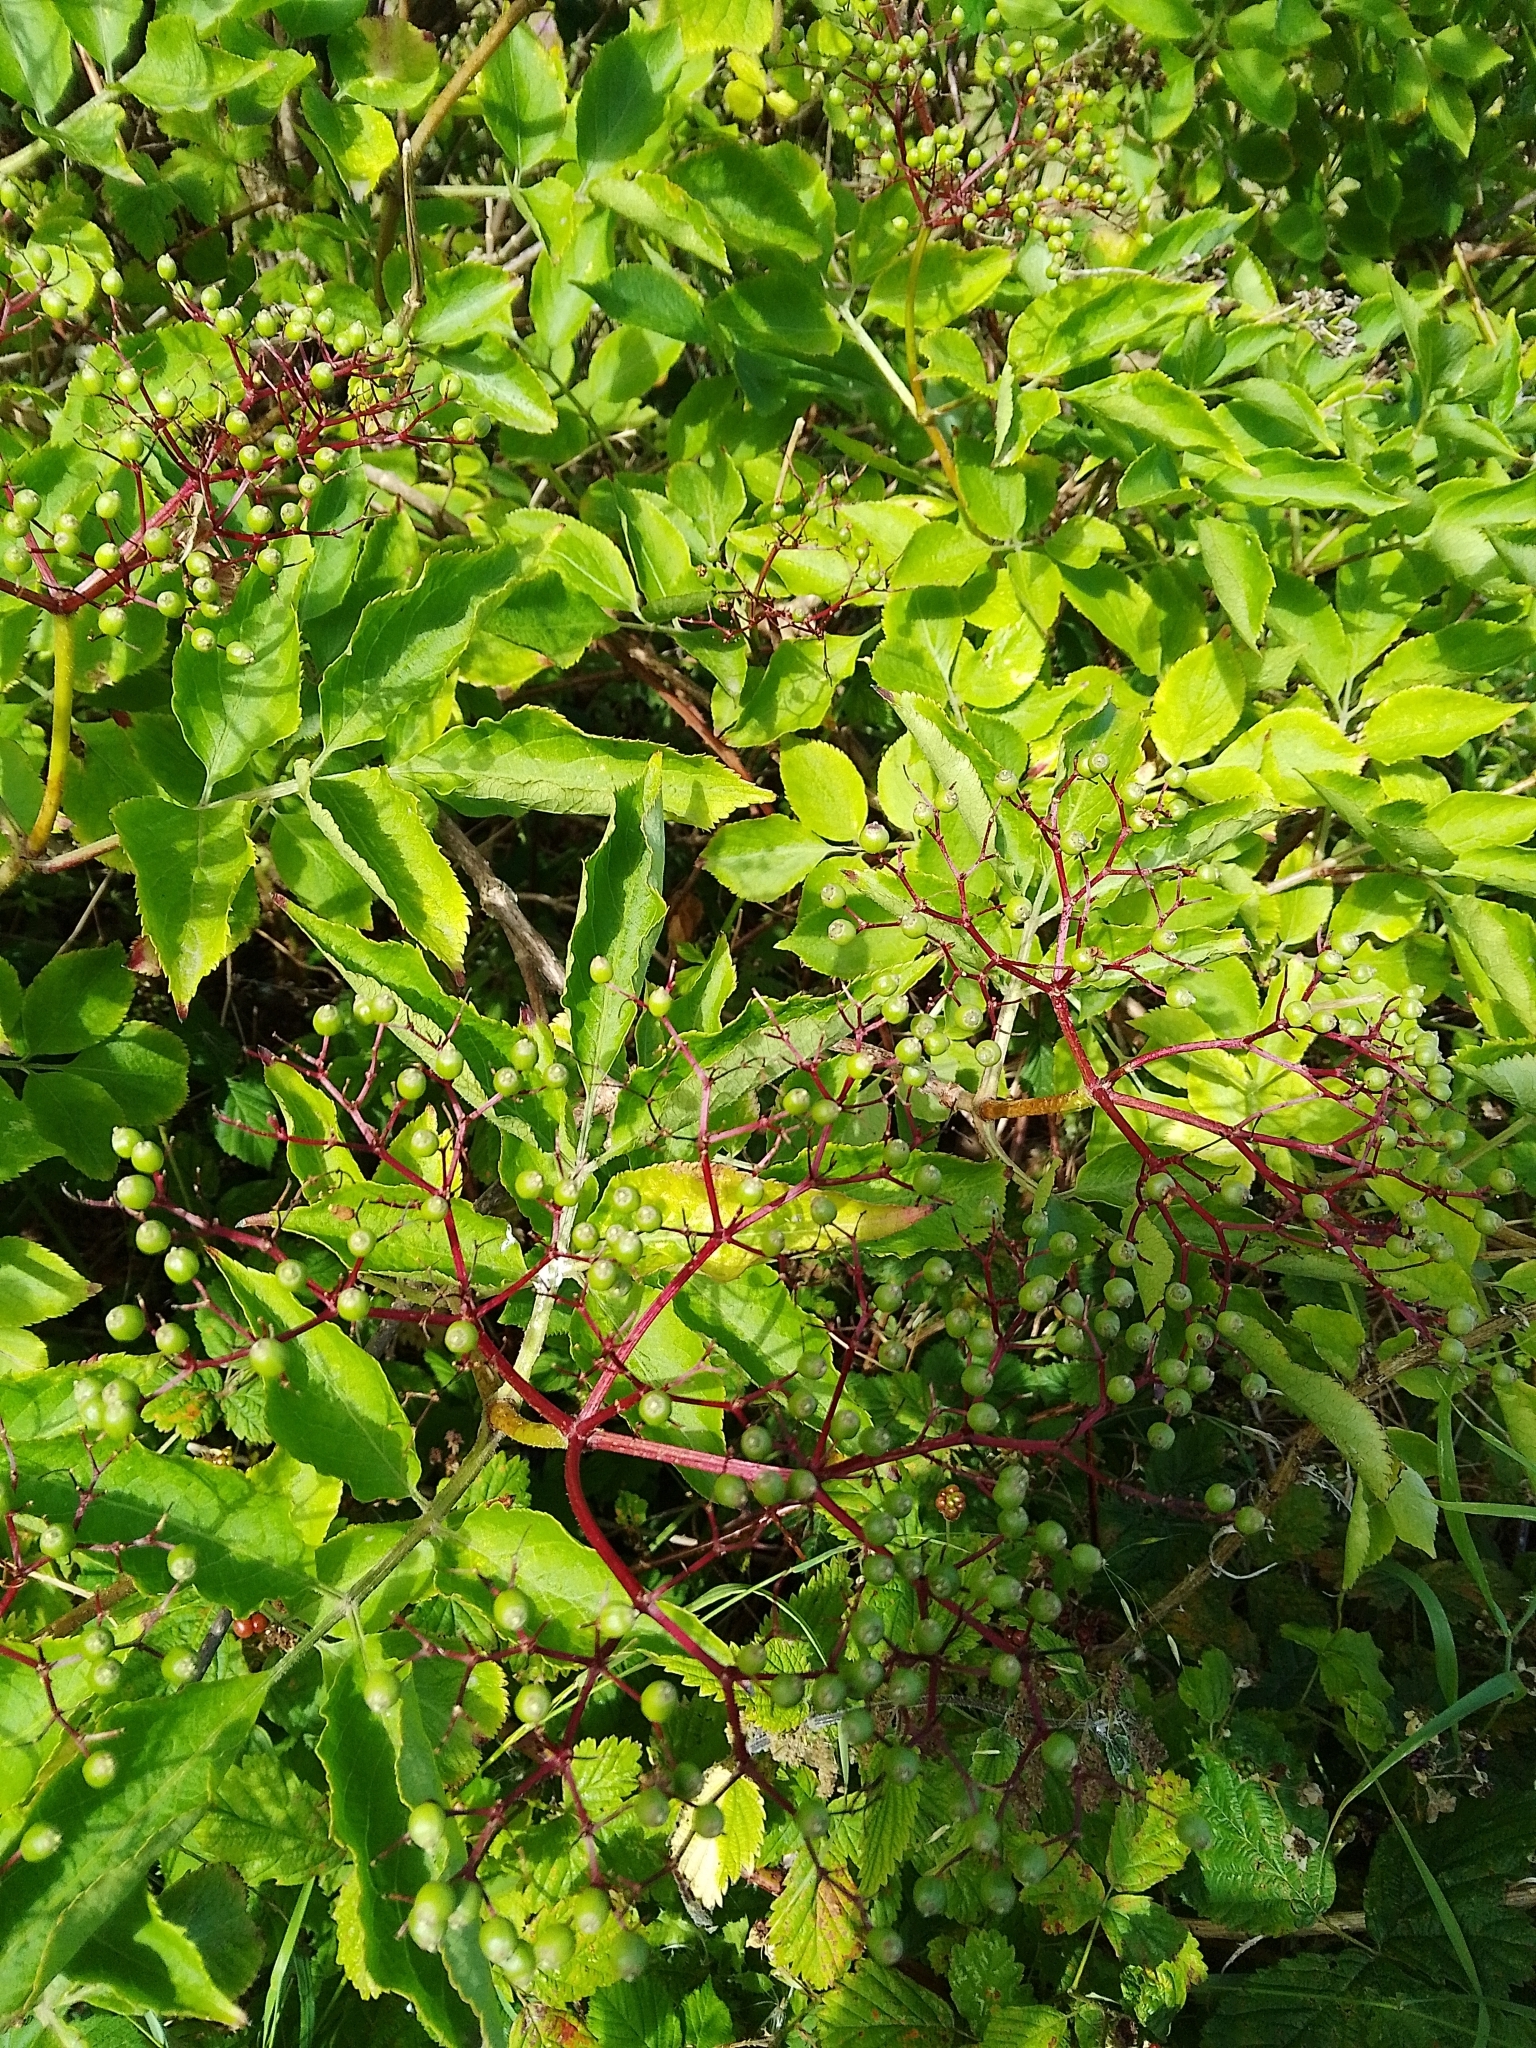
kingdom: Plantae
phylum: Tracheophyta
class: Magnoliopsida
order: Dipsacales
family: Viburnaceae
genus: Sambucus
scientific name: Sambucus nigra
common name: Elder
